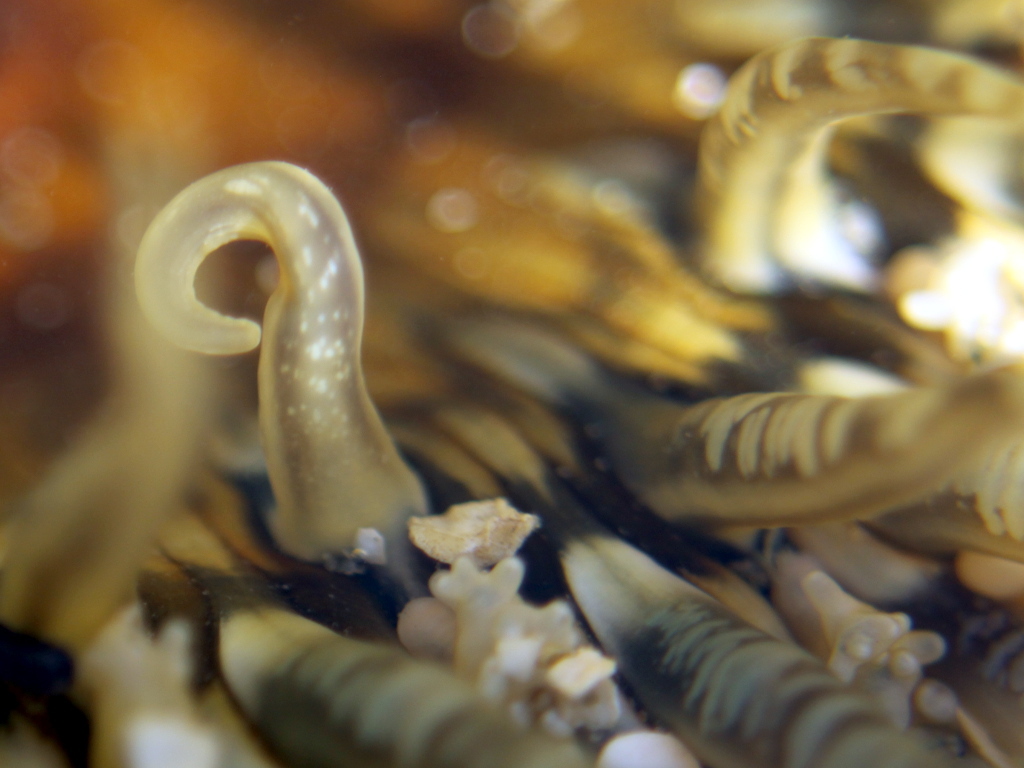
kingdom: Animalia
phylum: Cnidaria
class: Anthozoa
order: Actiniaria
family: Actiniidae
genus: Oulactis
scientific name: Oulactis muscosa
